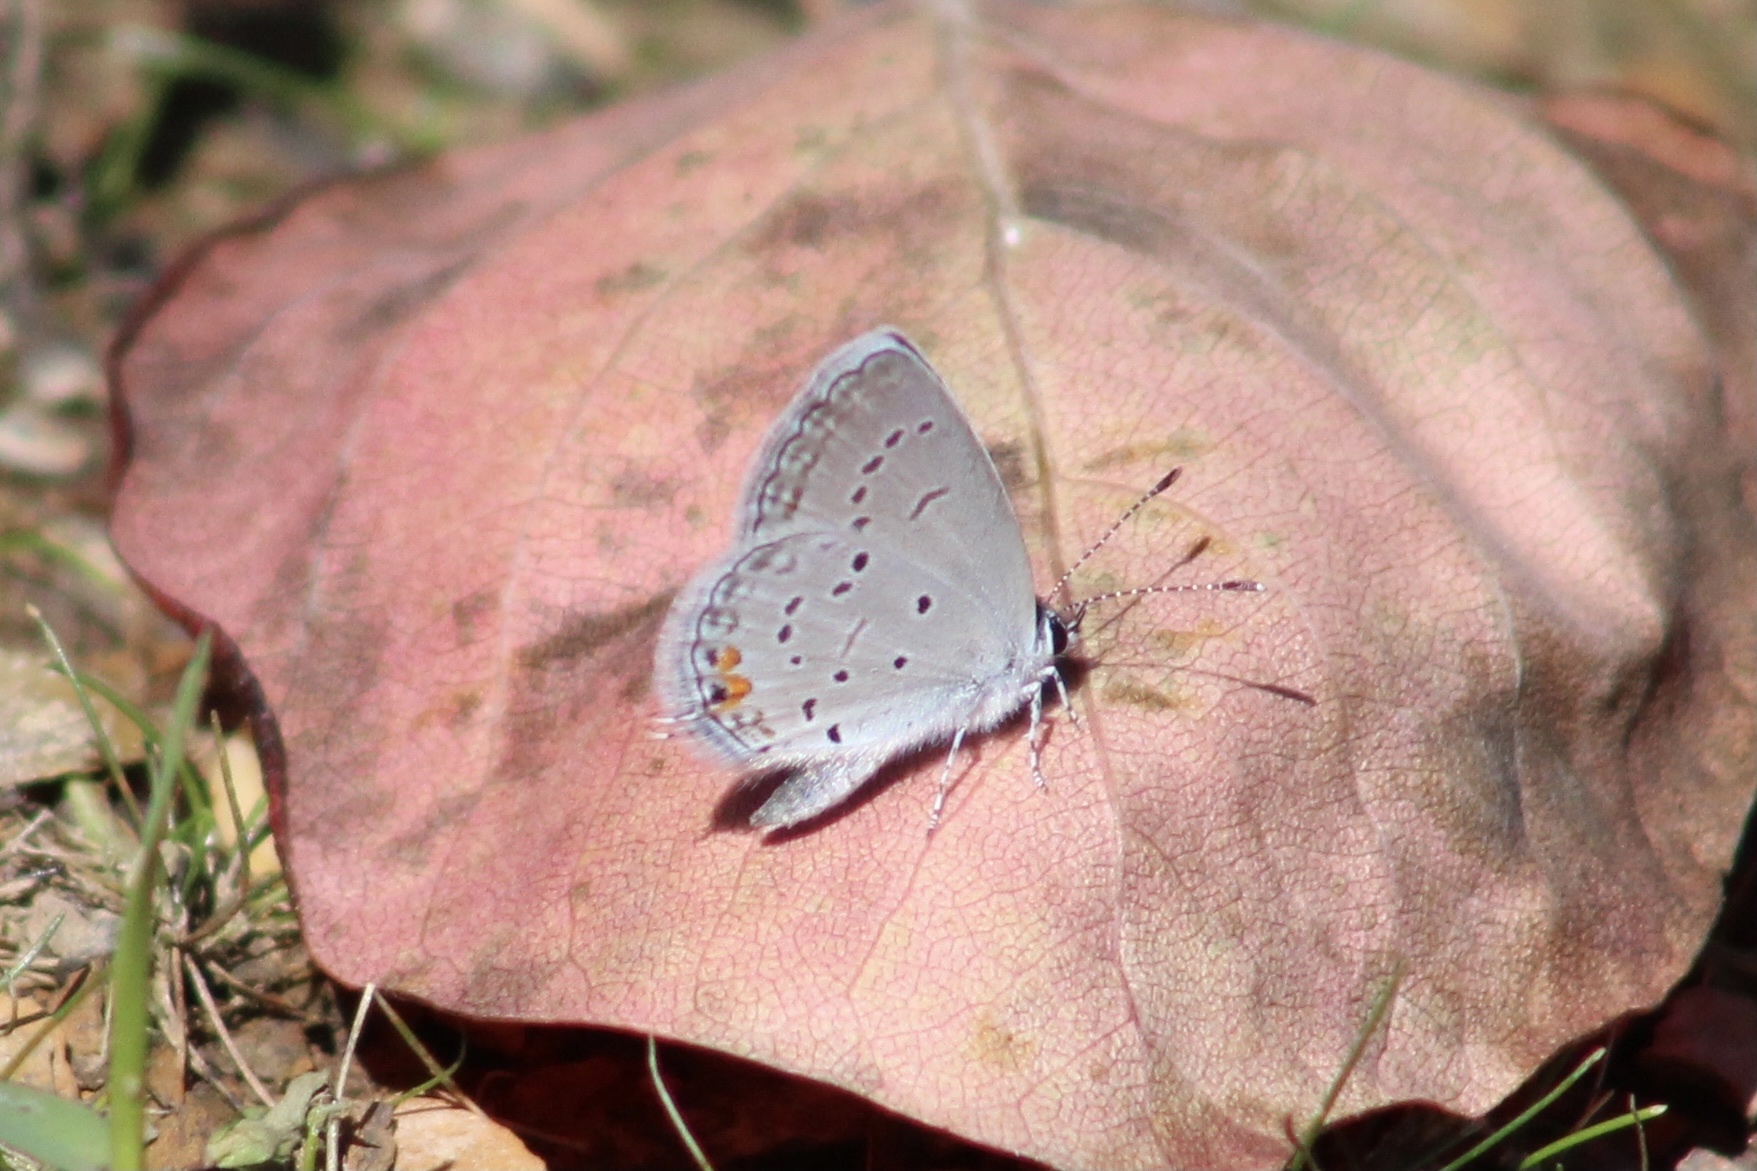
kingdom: Animalia
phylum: Arthropoda
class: Insecta
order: Lepidoptera
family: Lycaenidae
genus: Elkalyce
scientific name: Elkalyce comyntas
